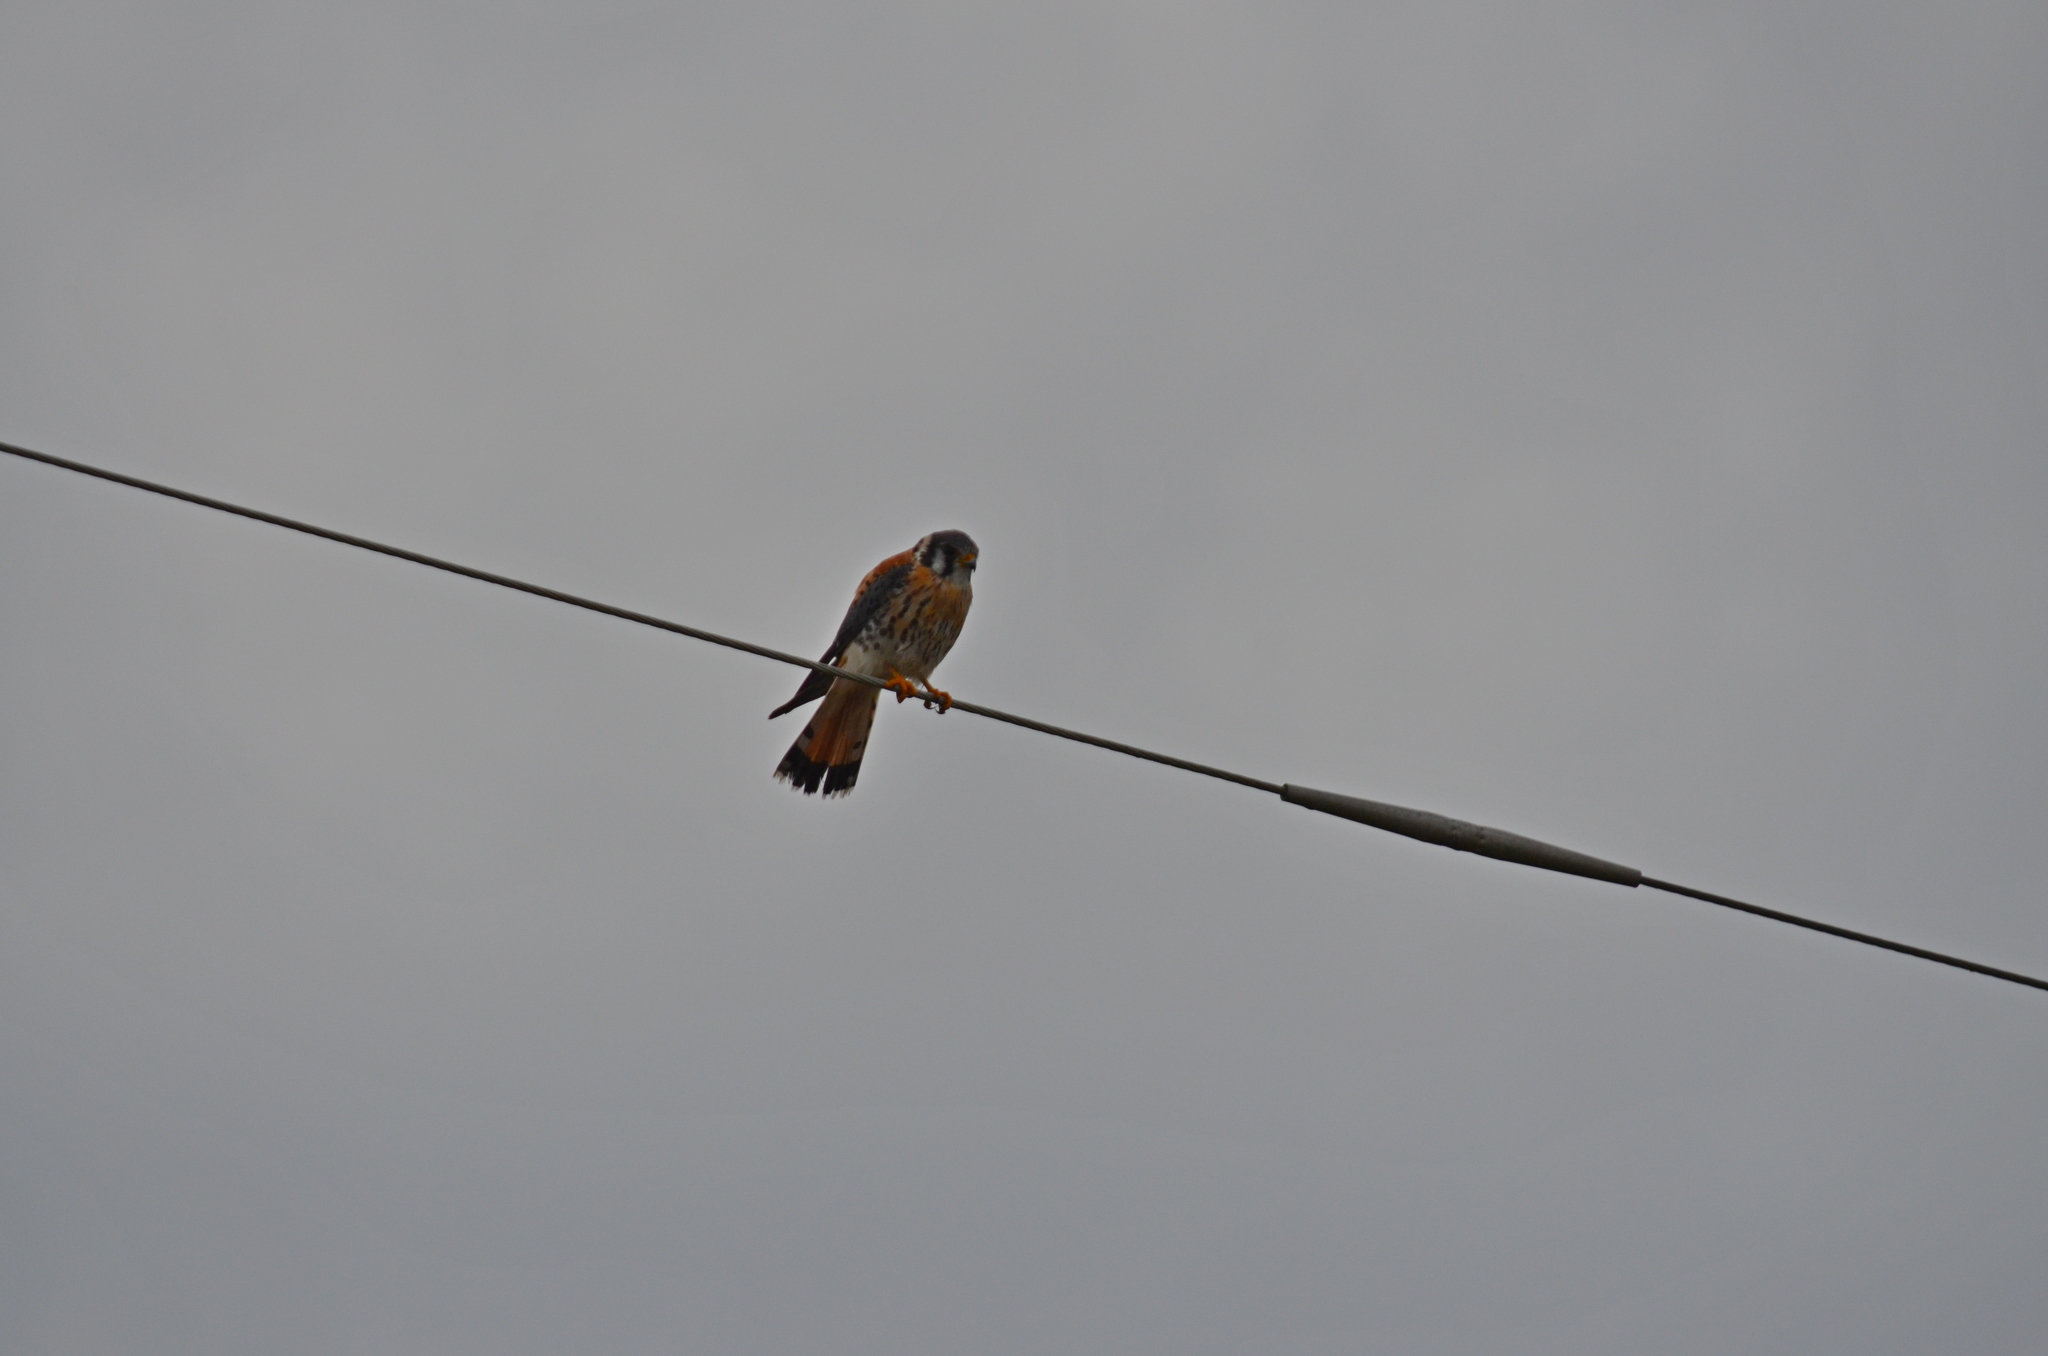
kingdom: Animalia
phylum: Chordata
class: Aves
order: Falconiformes
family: Falconidae
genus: Falco
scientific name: Falco sparverius
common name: American kestrel
